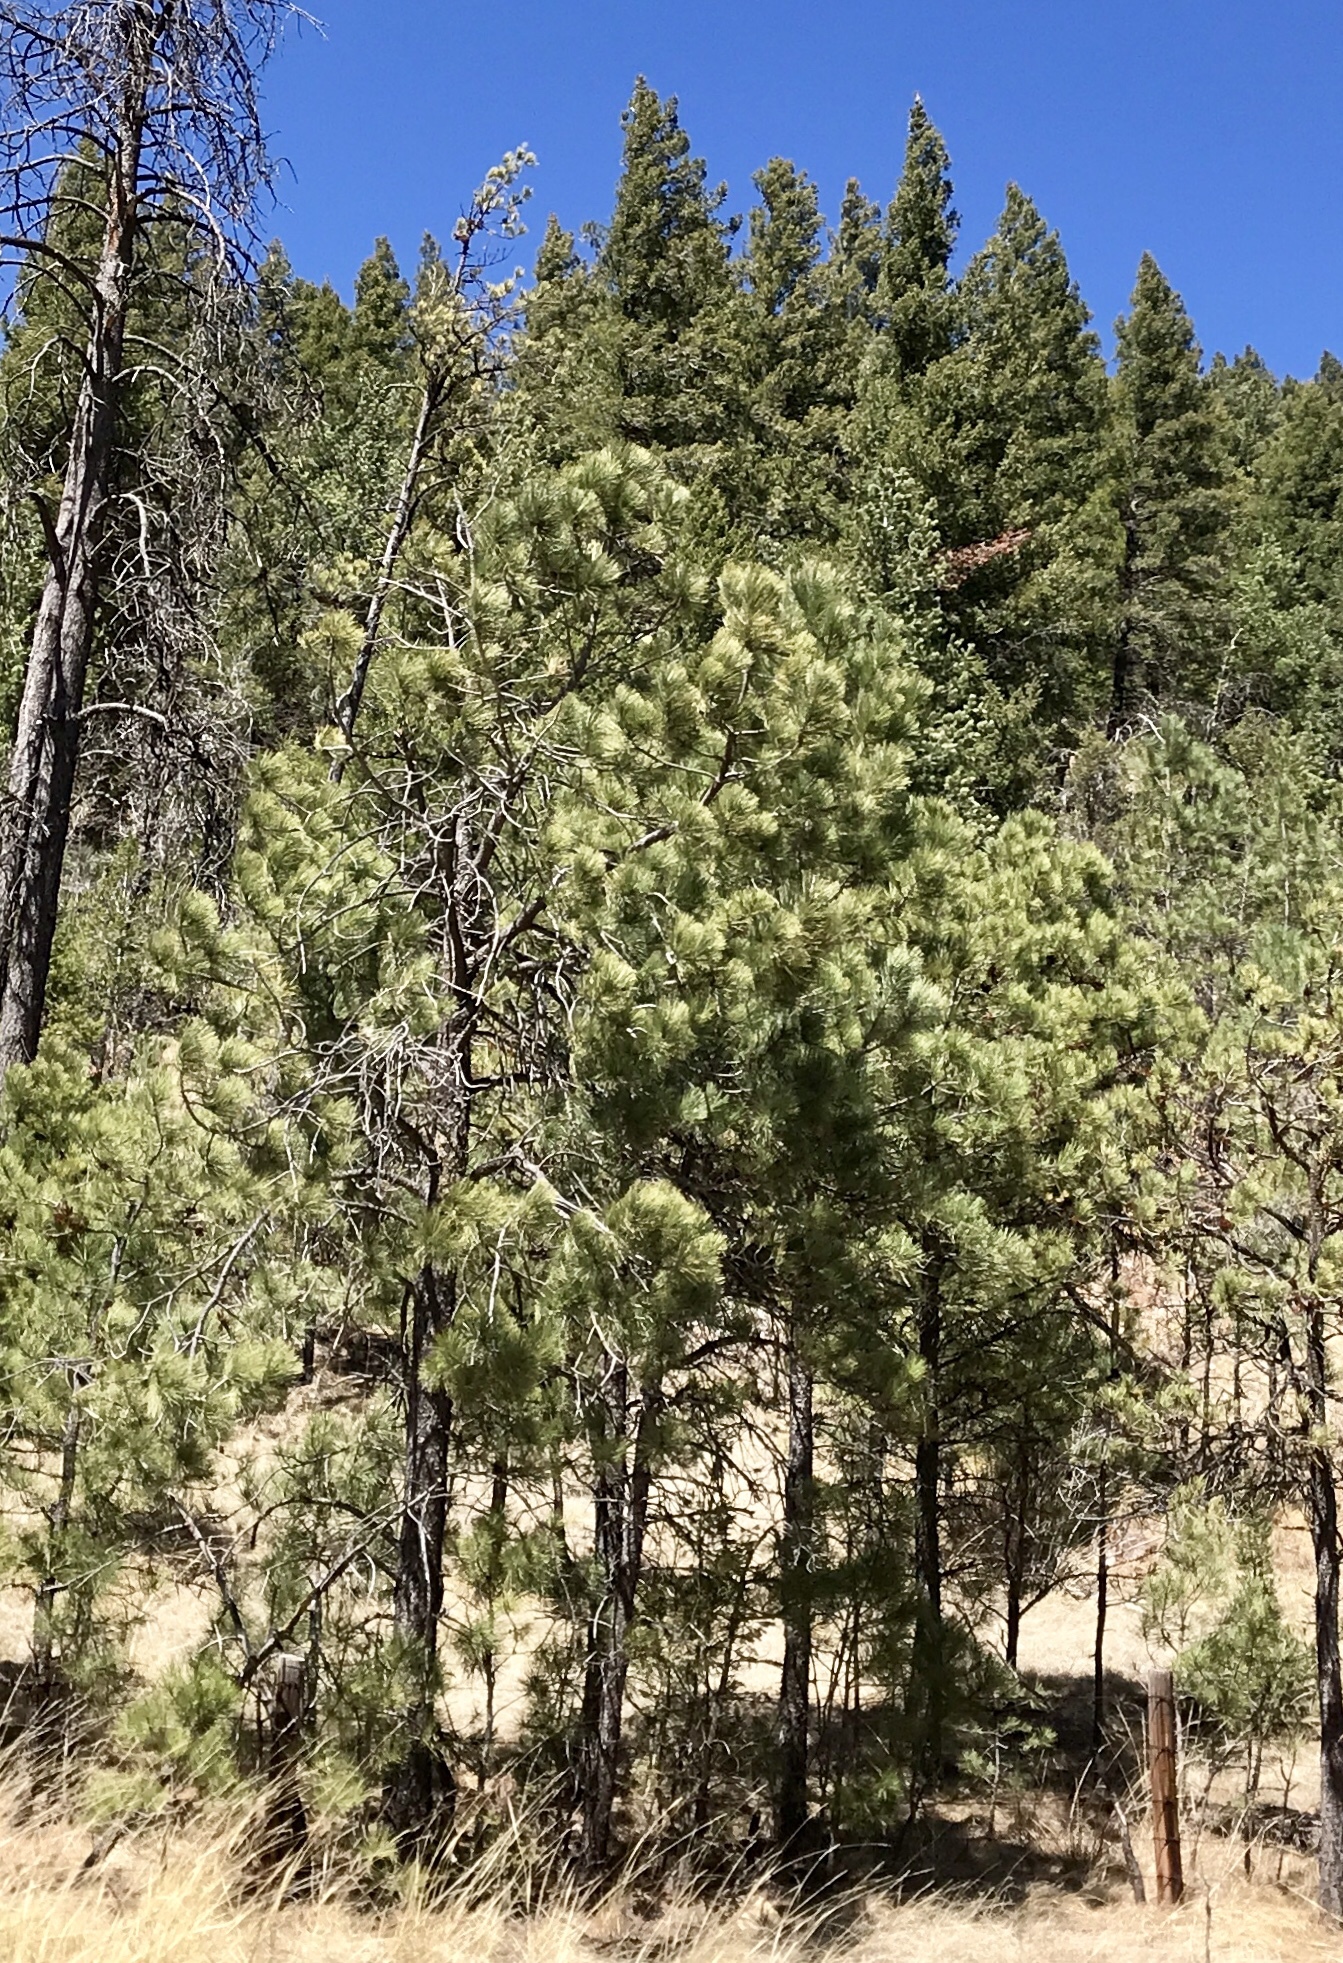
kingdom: Plantae
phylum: Tracheophyta
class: Pinopsida
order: Pinales
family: Pinaceae
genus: Pinus
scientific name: Pinus ponderosa
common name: Western yellow-pine
